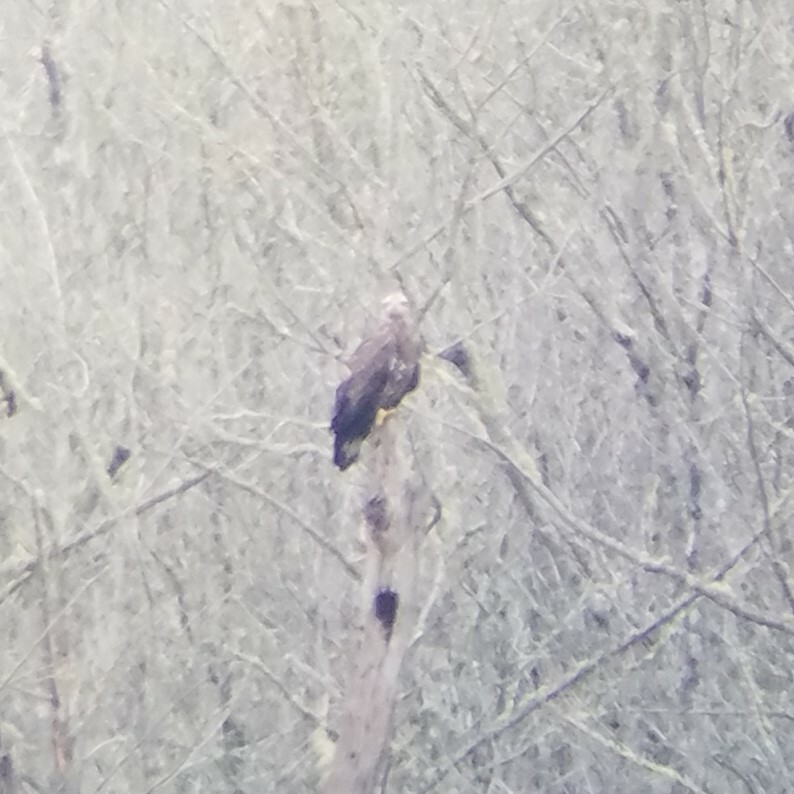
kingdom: Animalia
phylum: Chordata
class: Aves
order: Accipitriformes
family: Accipitridae
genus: Haliaeetus
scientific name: Haliaeetus leucocephalus
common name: Bald eagle
